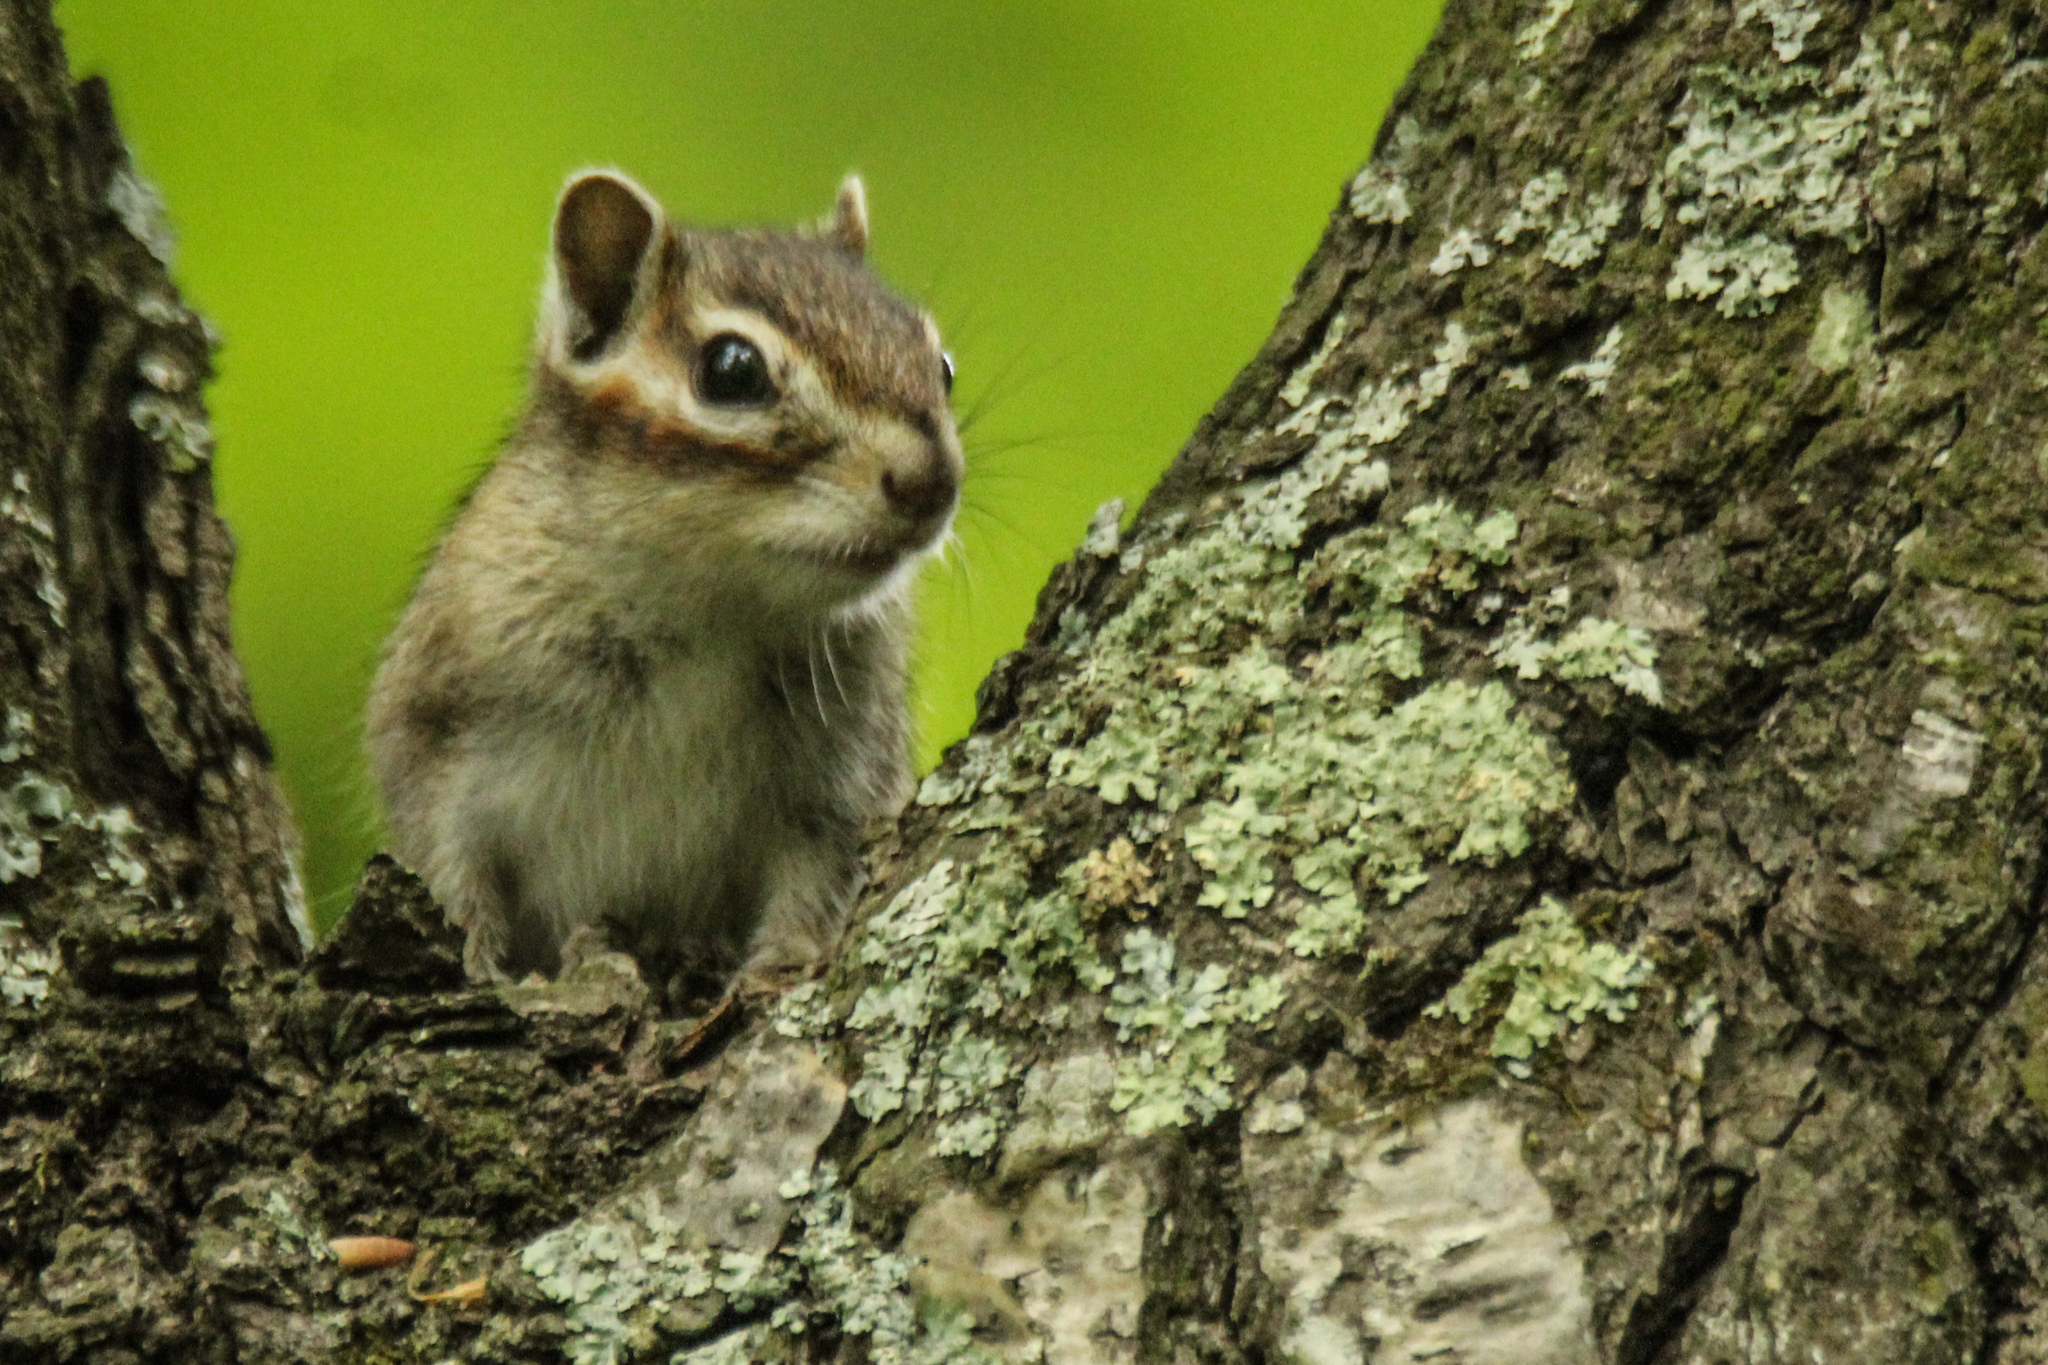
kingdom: Animalia
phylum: Chordata
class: Mammalia
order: Rodentia
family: Sciuridae
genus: Tamias
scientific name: Tamias sibiricus
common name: Siberian chipmunk
